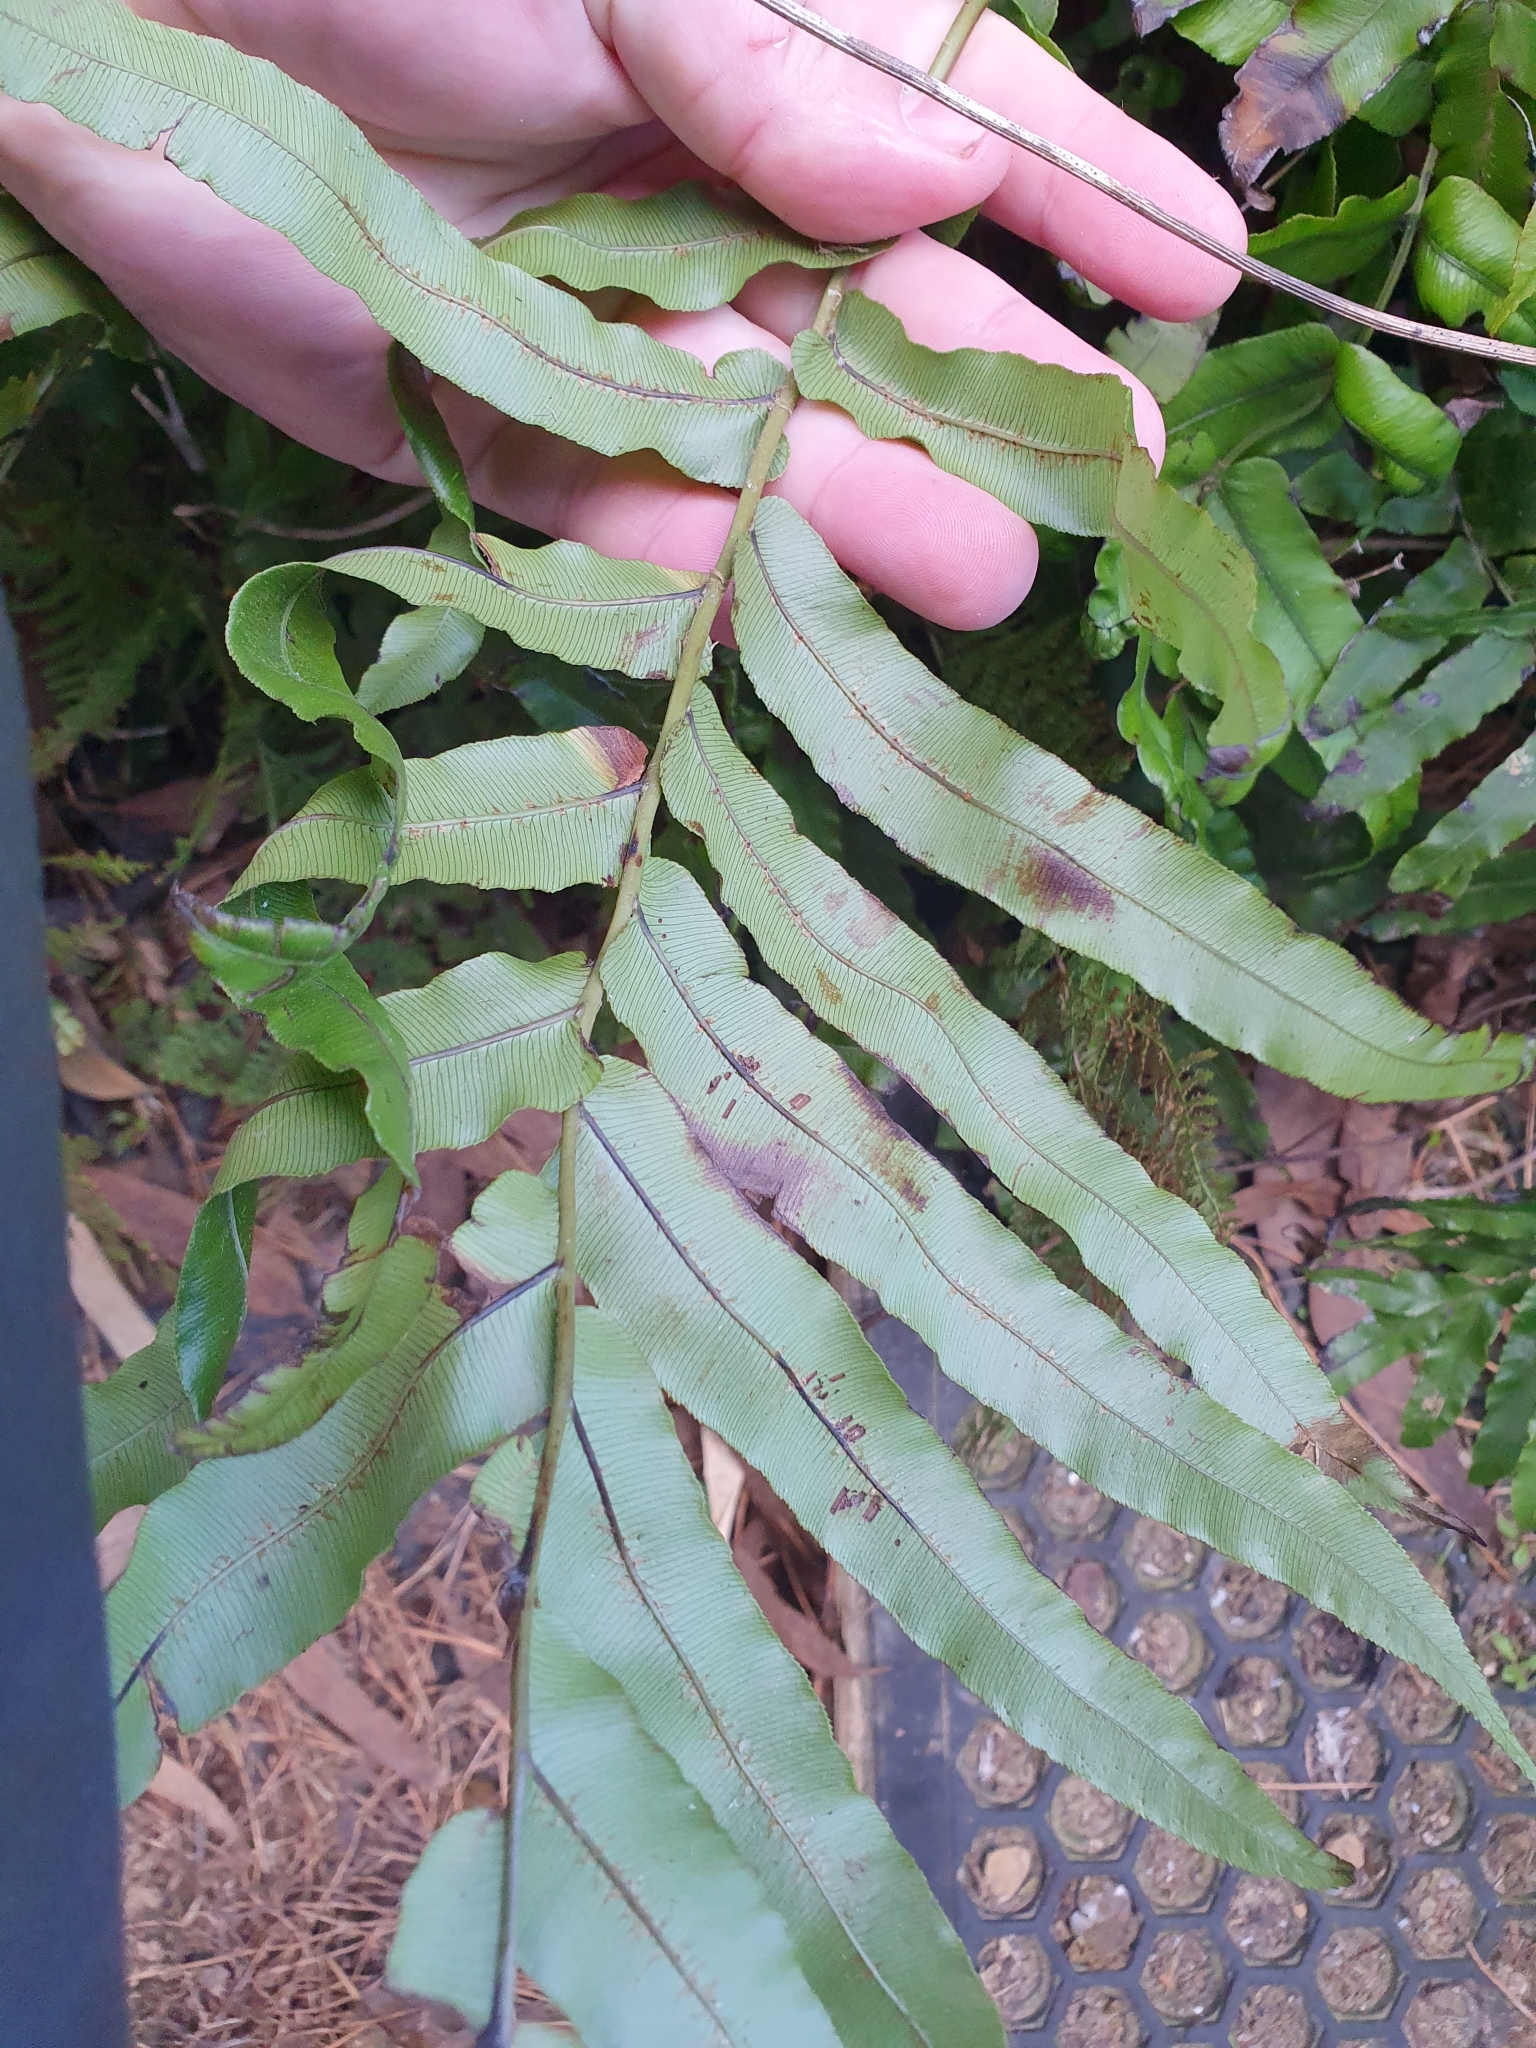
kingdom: Plantae
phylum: Tracheophyta
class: Polypodiopsida
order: Polypodiales
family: Blechnaceae
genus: Parablechnum
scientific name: Parablechnum novae-zelandiae
